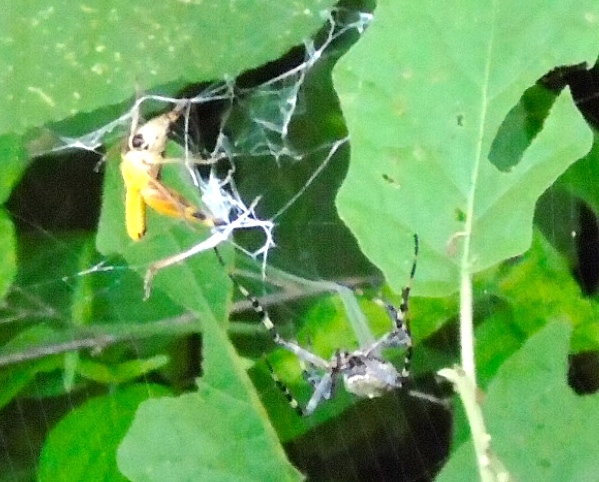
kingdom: Animalia
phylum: Arthropoda
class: Insecta
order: Orthoptera
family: Acrididae
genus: Boopedon
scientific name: Boopedon flaviventris
